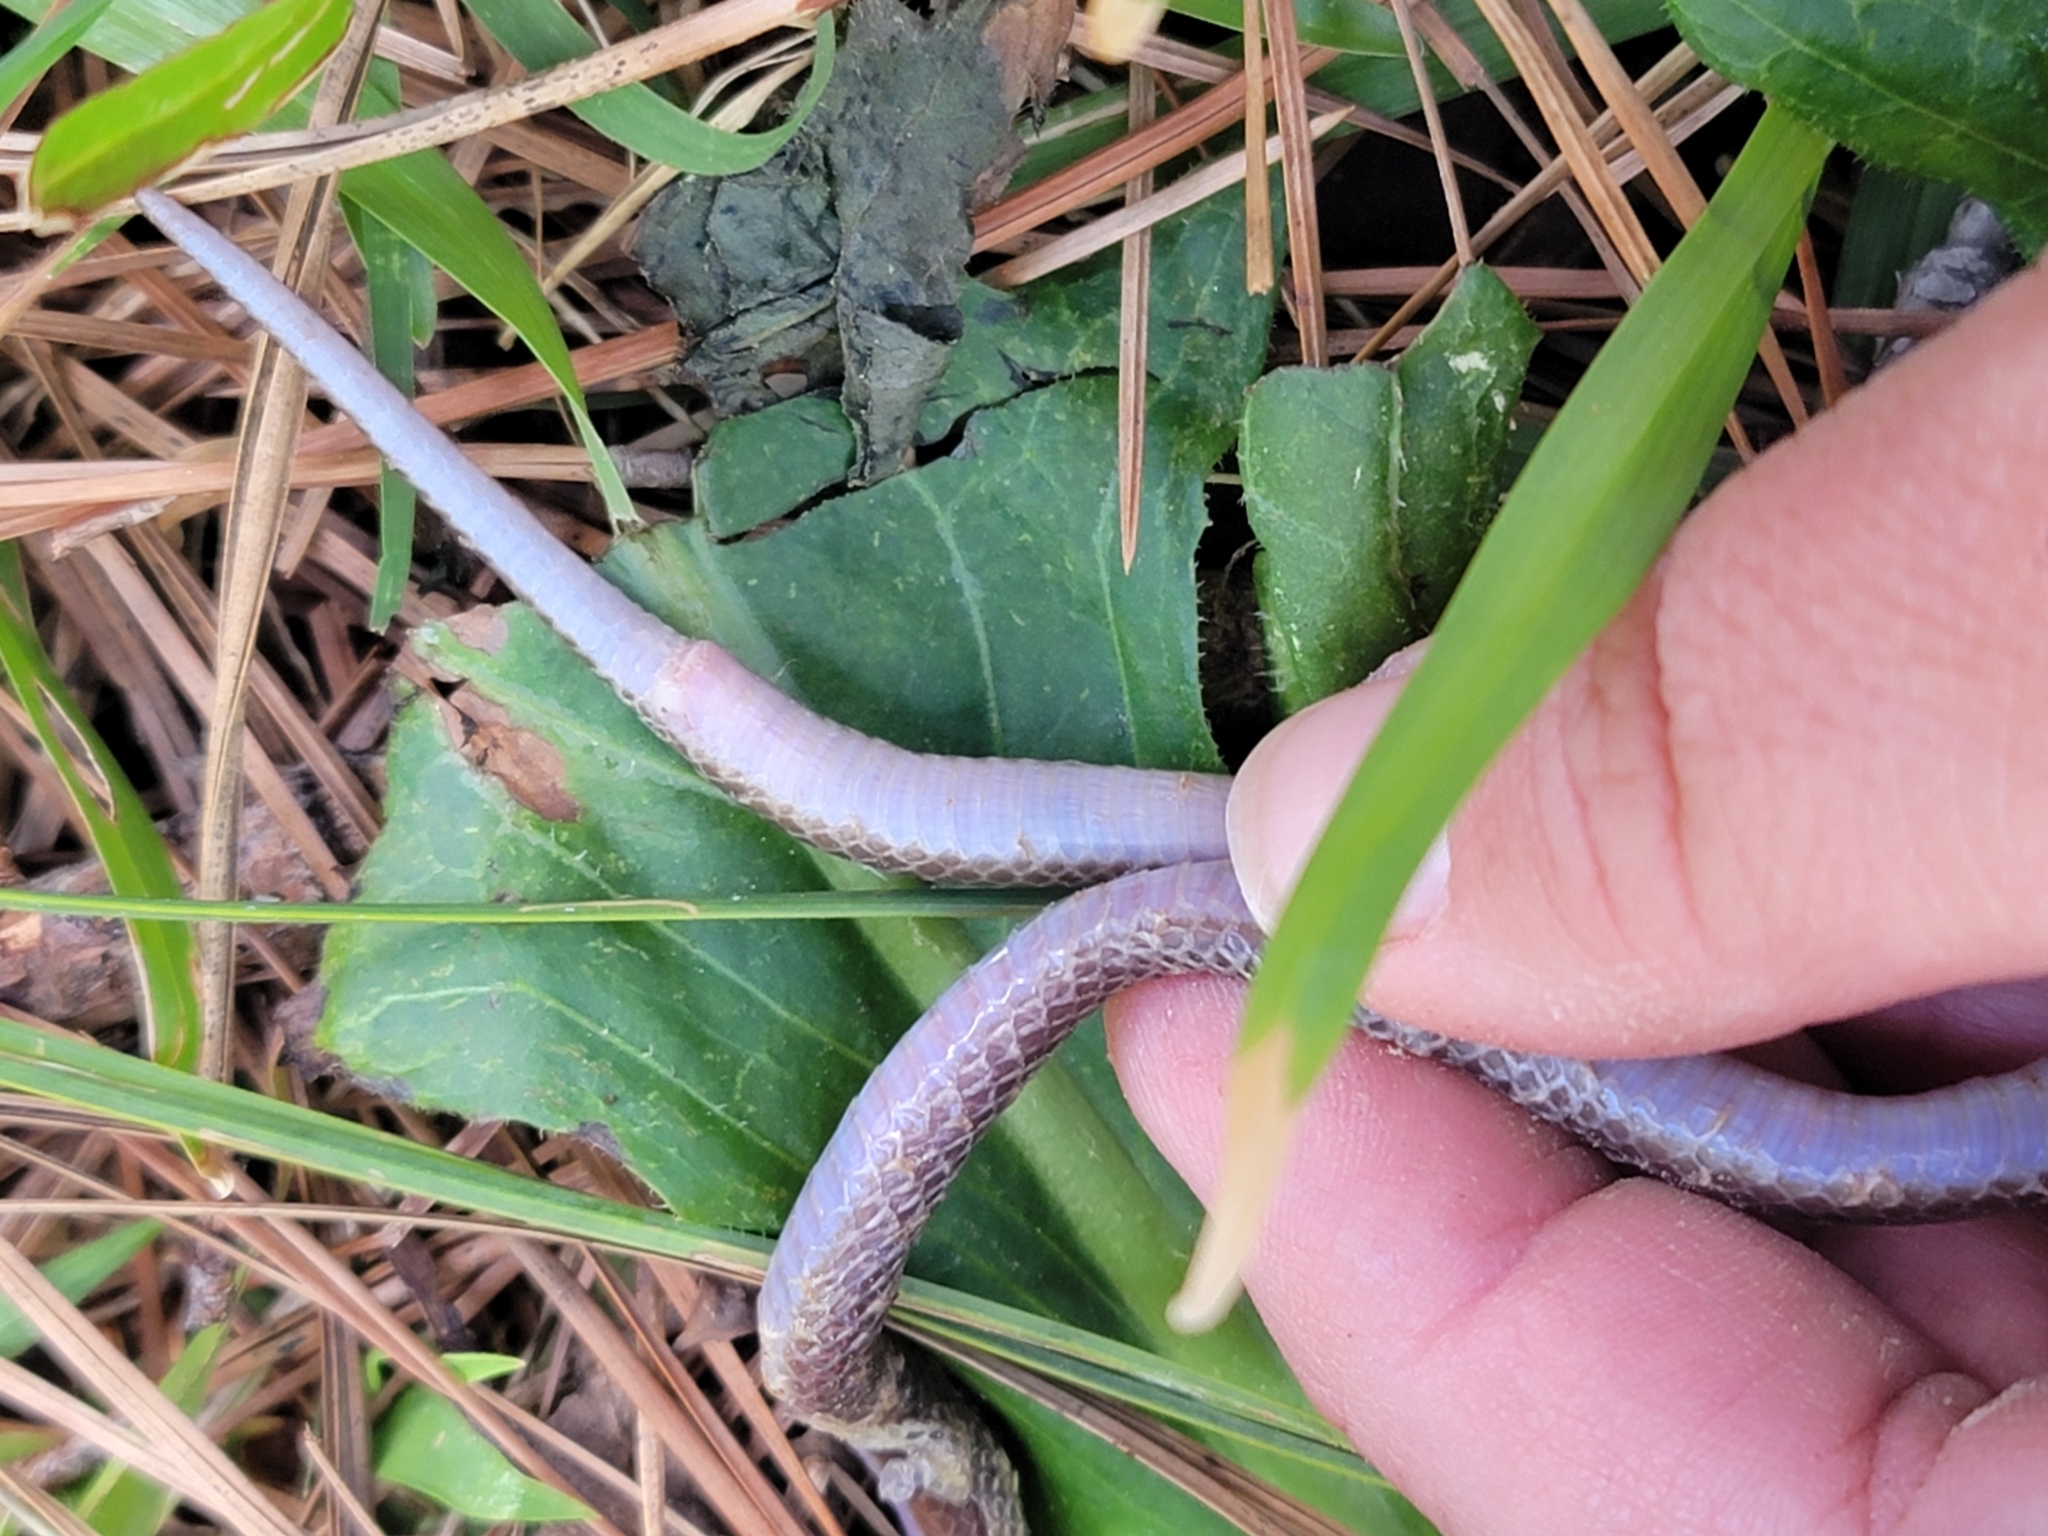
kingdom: Animalia
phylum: Chordata
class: Squamata
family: Colubridae
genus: Carphophis
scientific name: Carphophis amoenus
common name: Eastern worm snake
